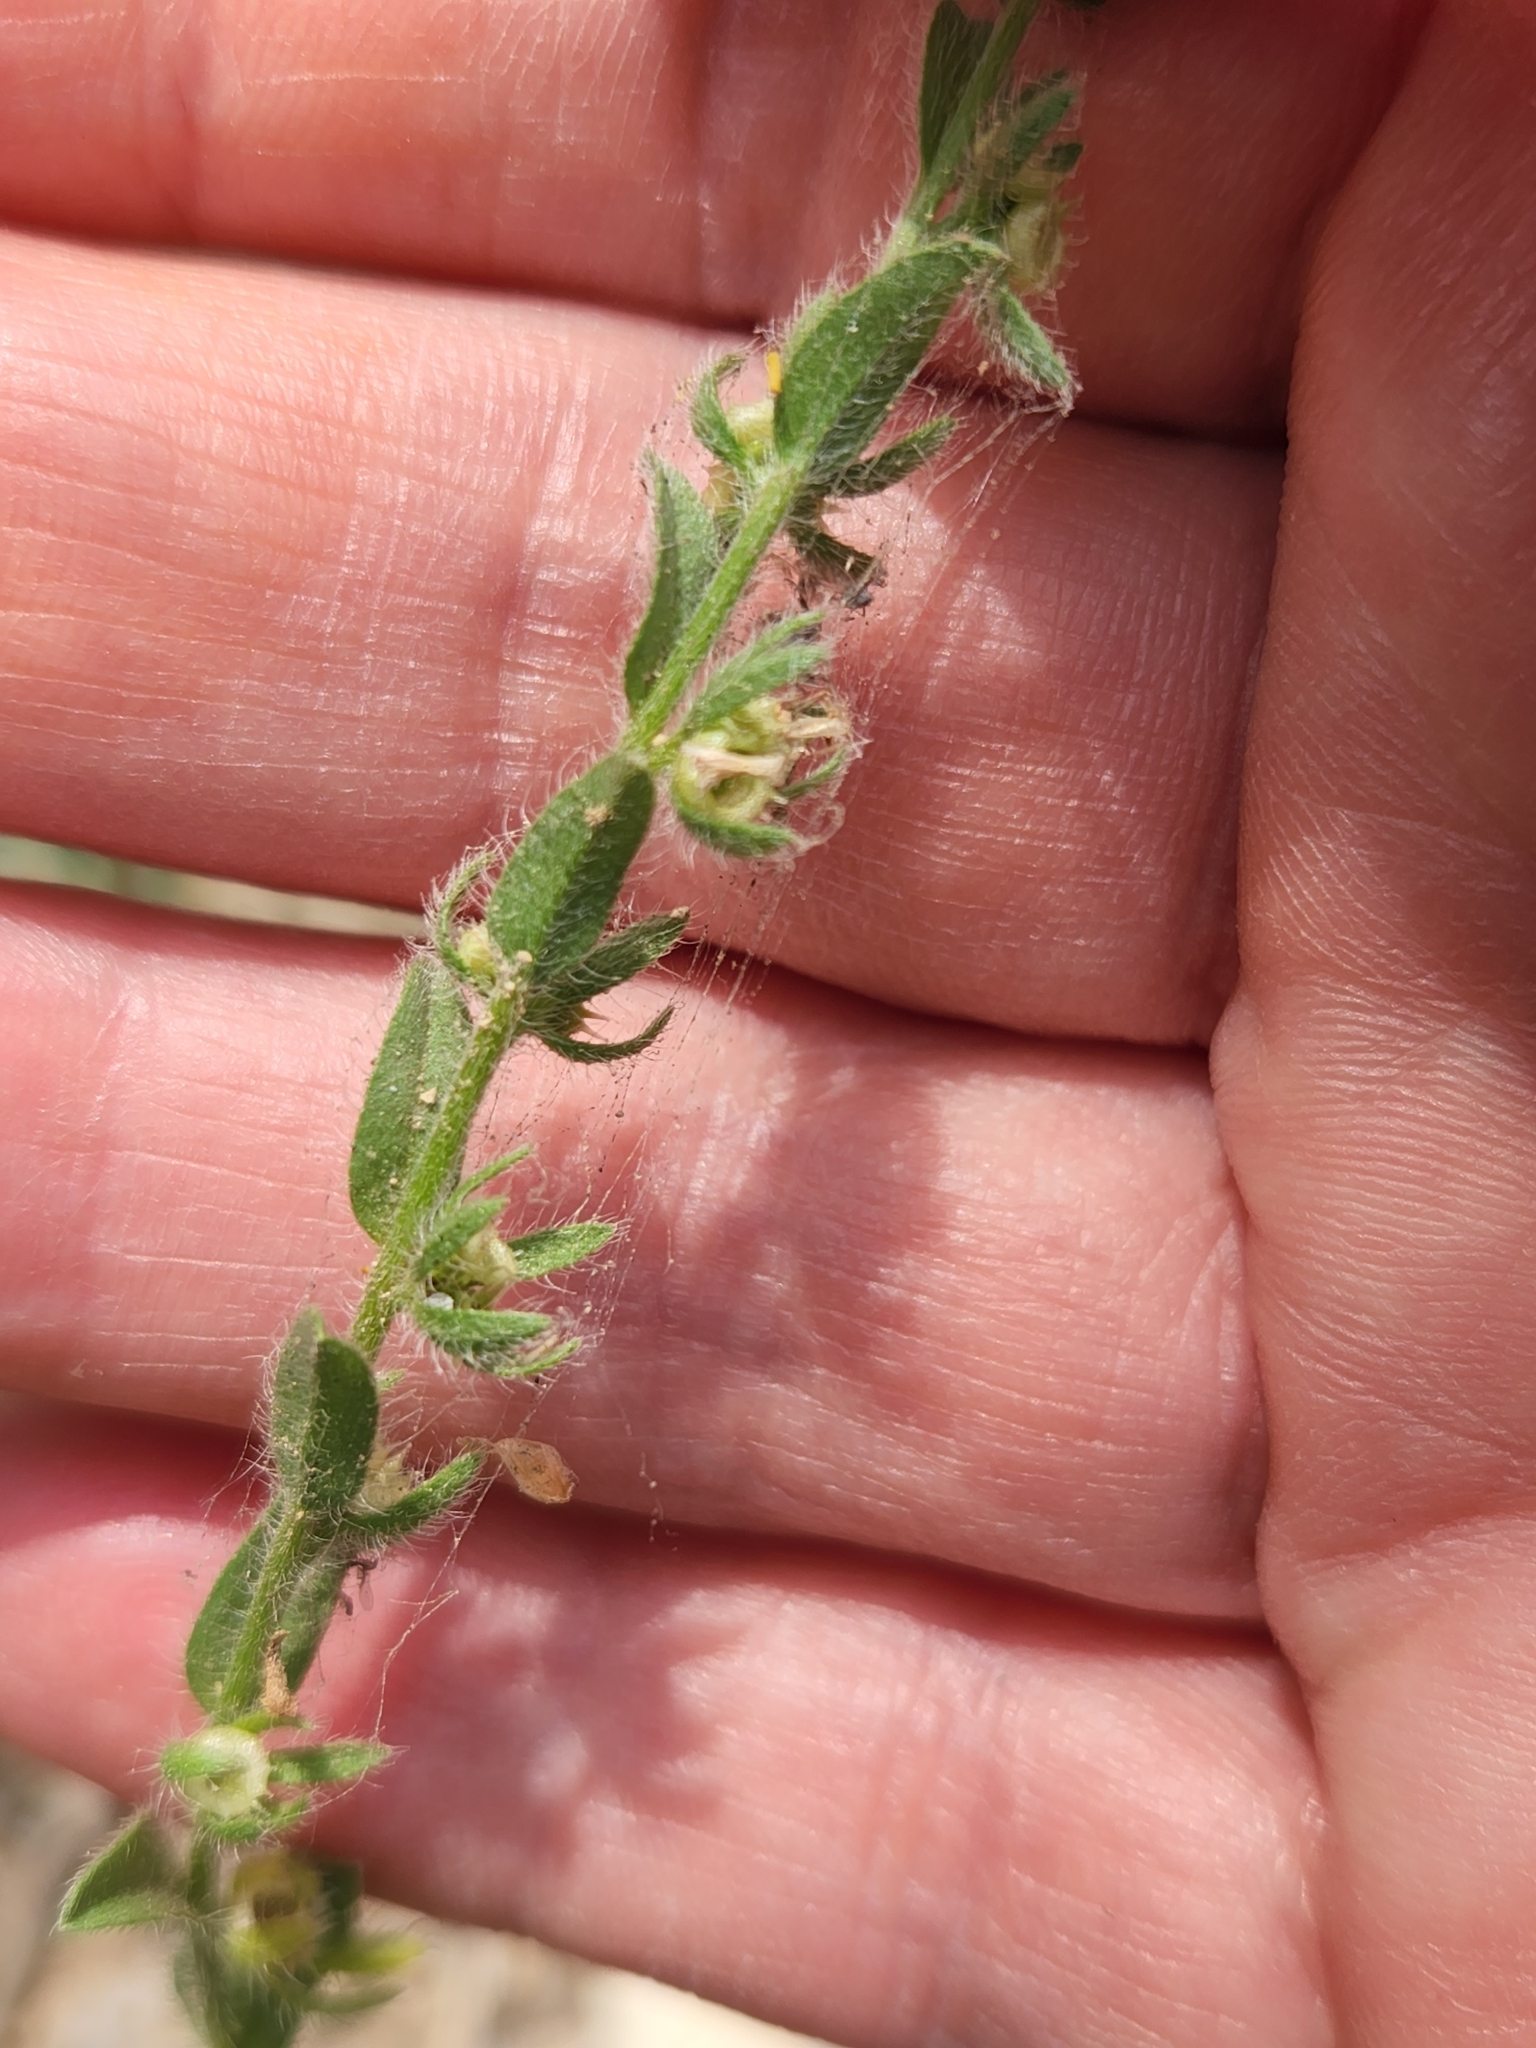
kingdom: Plantae
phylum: Tracheophyta
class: Magnoliopsida
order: Boraginales
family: Boraginaceae
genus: Lappula
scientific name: Lappula occidentalis
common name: Western stickseed
